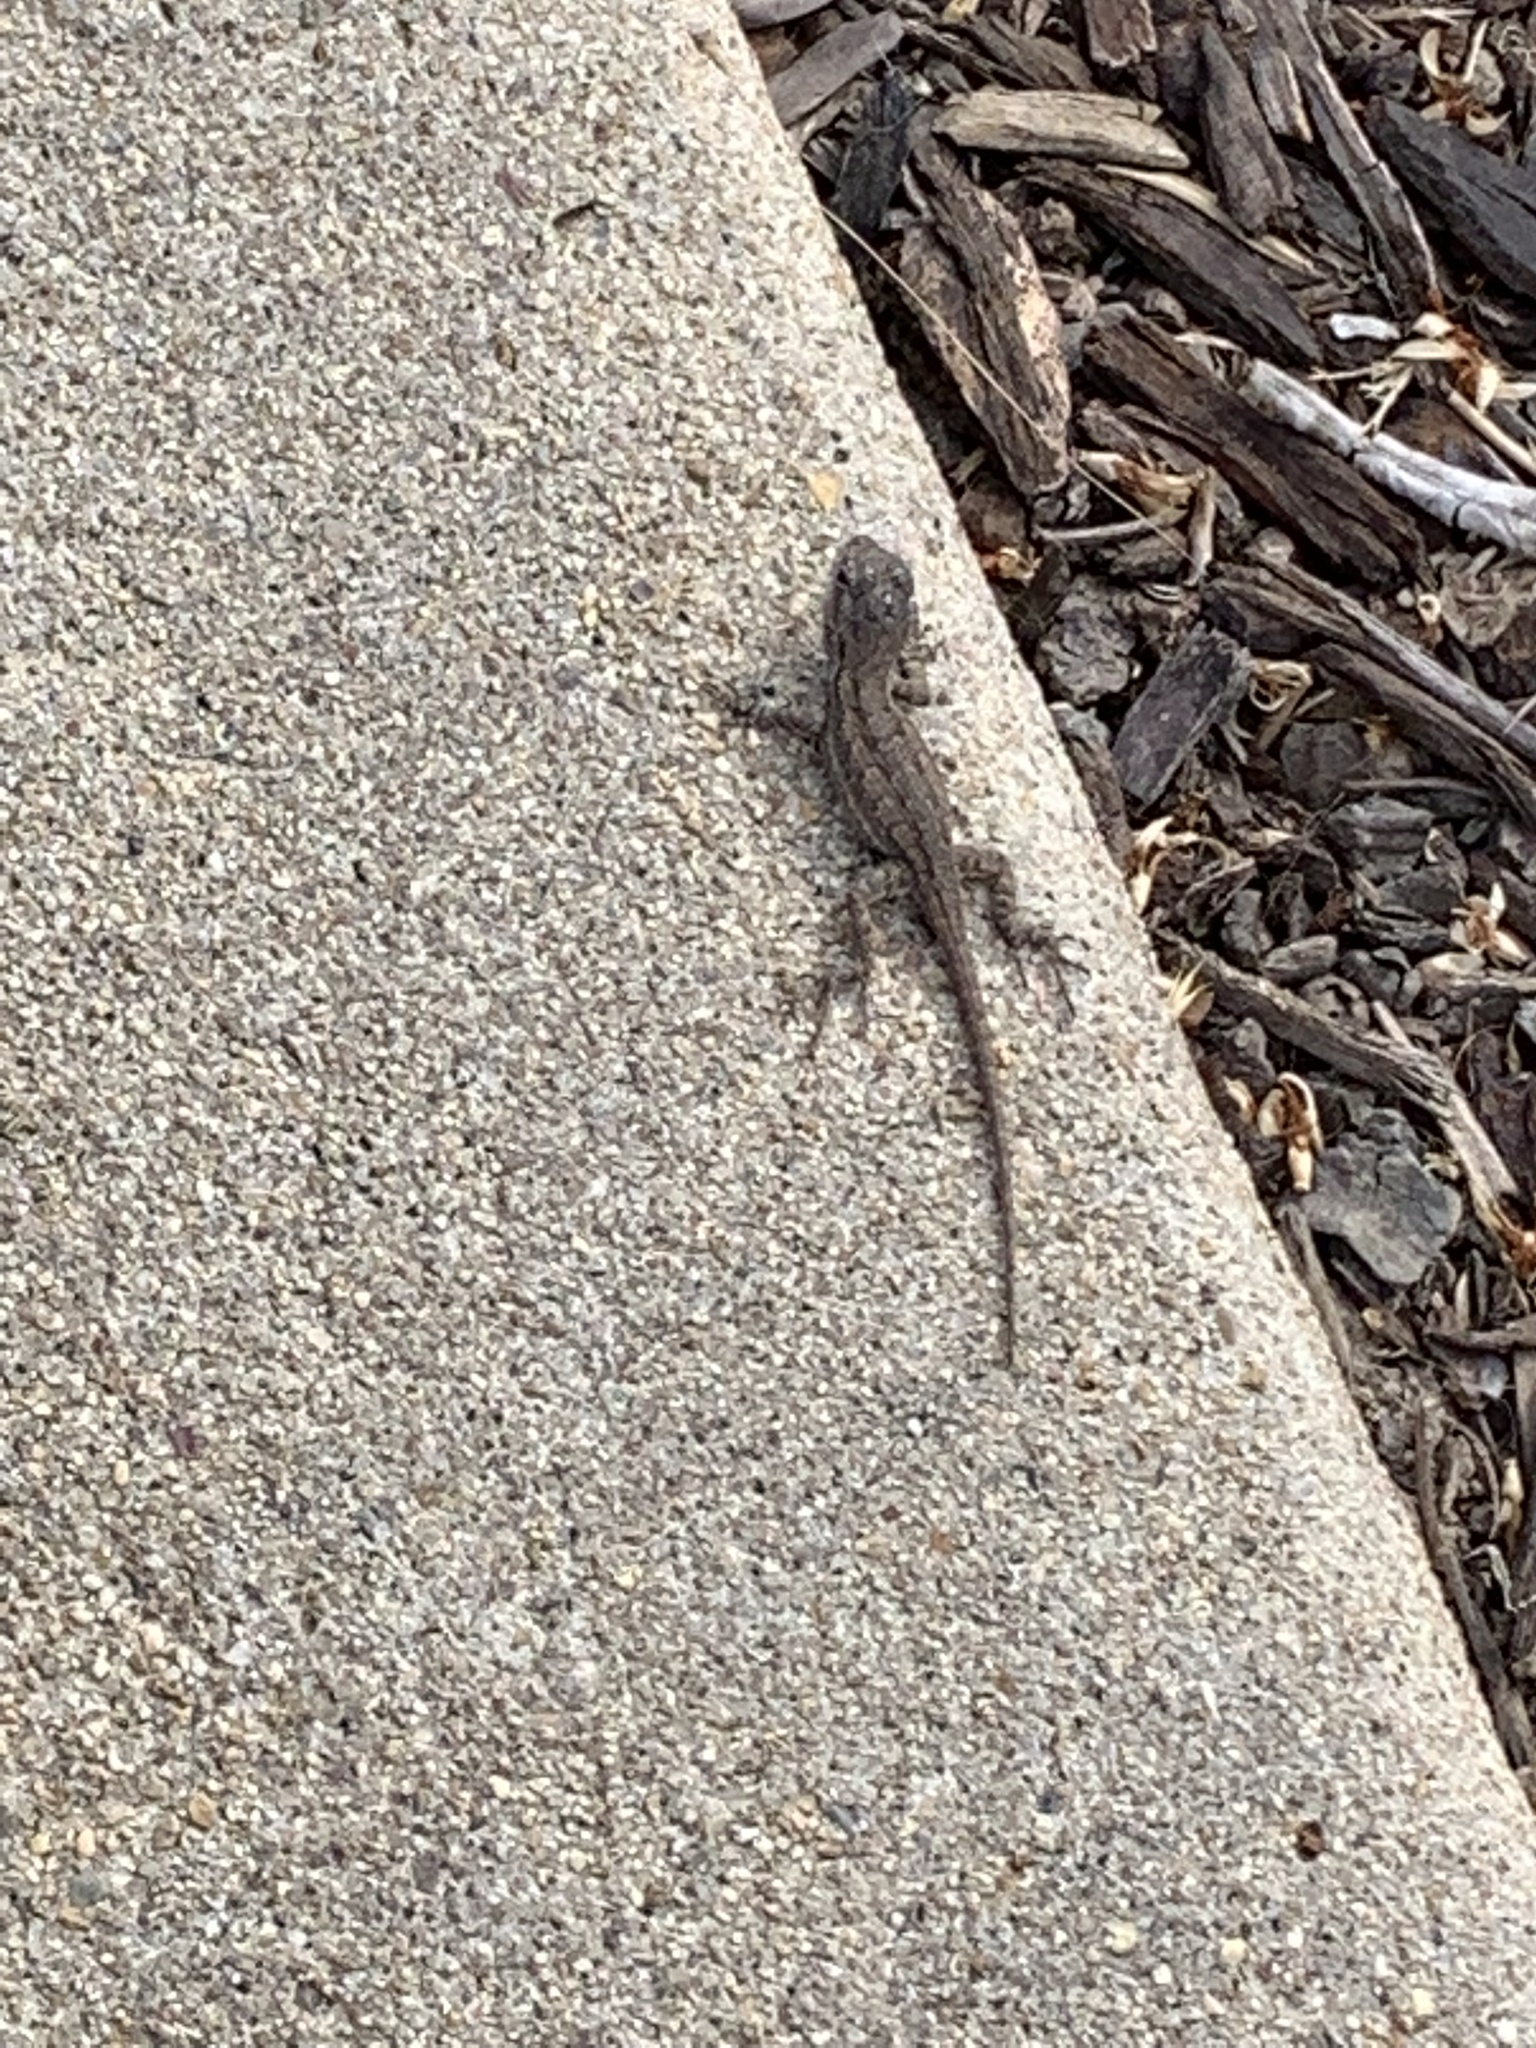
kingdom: Animalia
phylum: Chordata
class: Squamata
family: Phrynosomatidae
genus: Sceloporus
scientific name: Sceloporus occidentalis
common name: Western fence lizard
